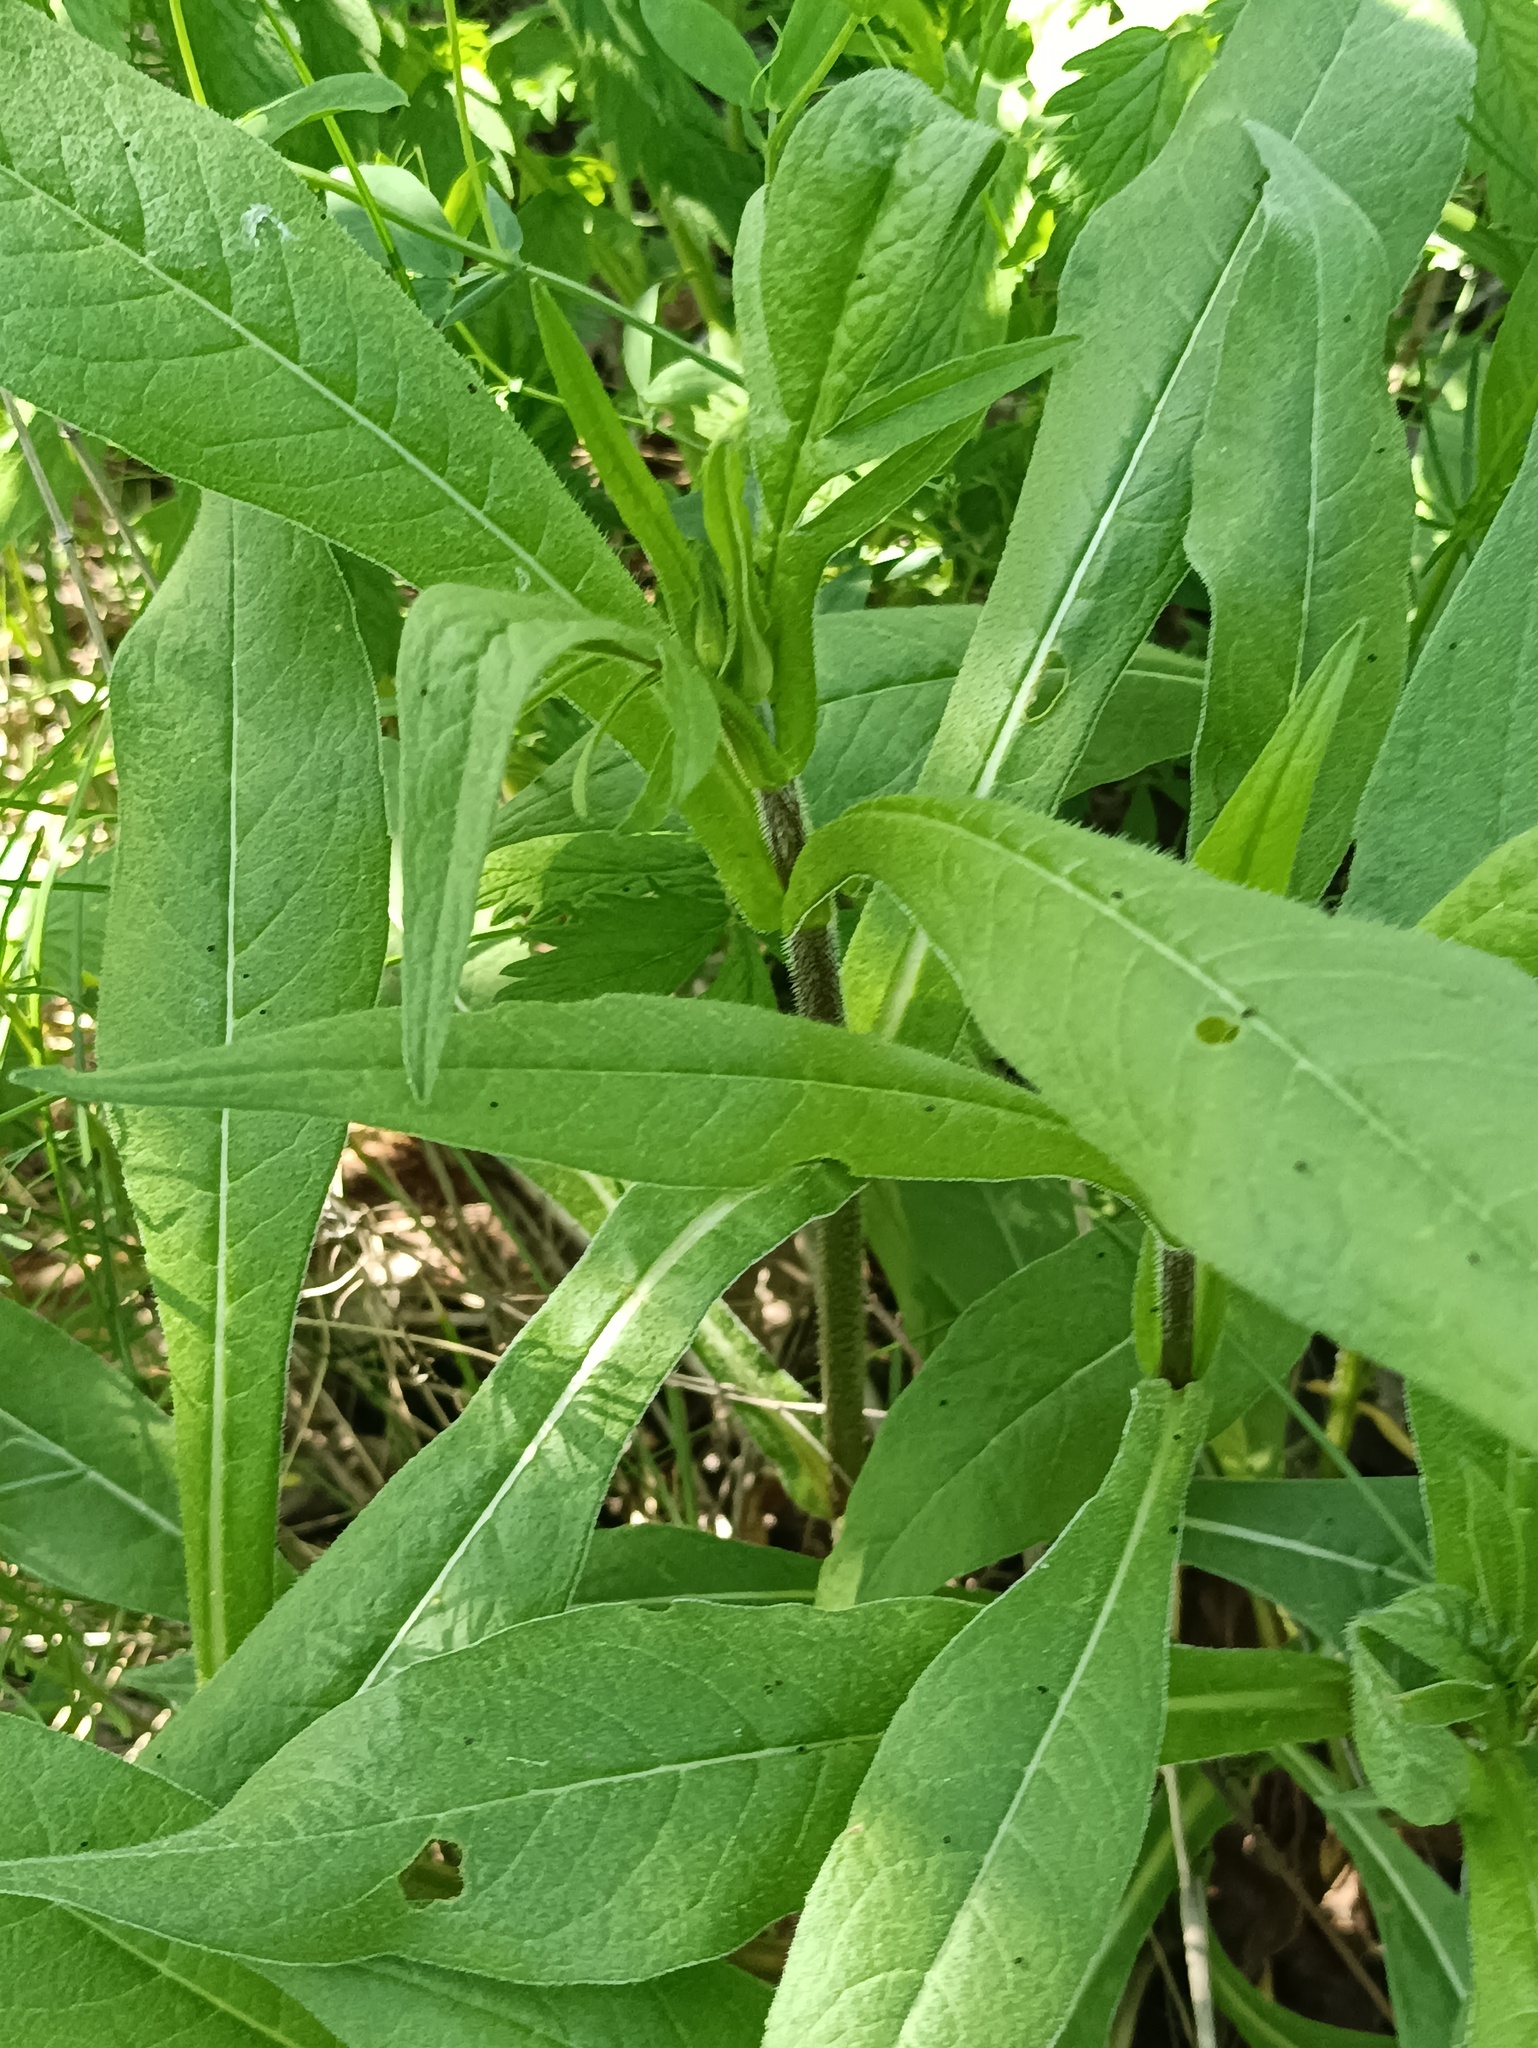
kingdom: Plantae
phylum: Tracheophyta
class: Magnoliopsida
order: Dipsacales
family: Caprifoliaceae
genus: Knautia
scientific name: Knautia arvensis
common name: Field scabiosa
